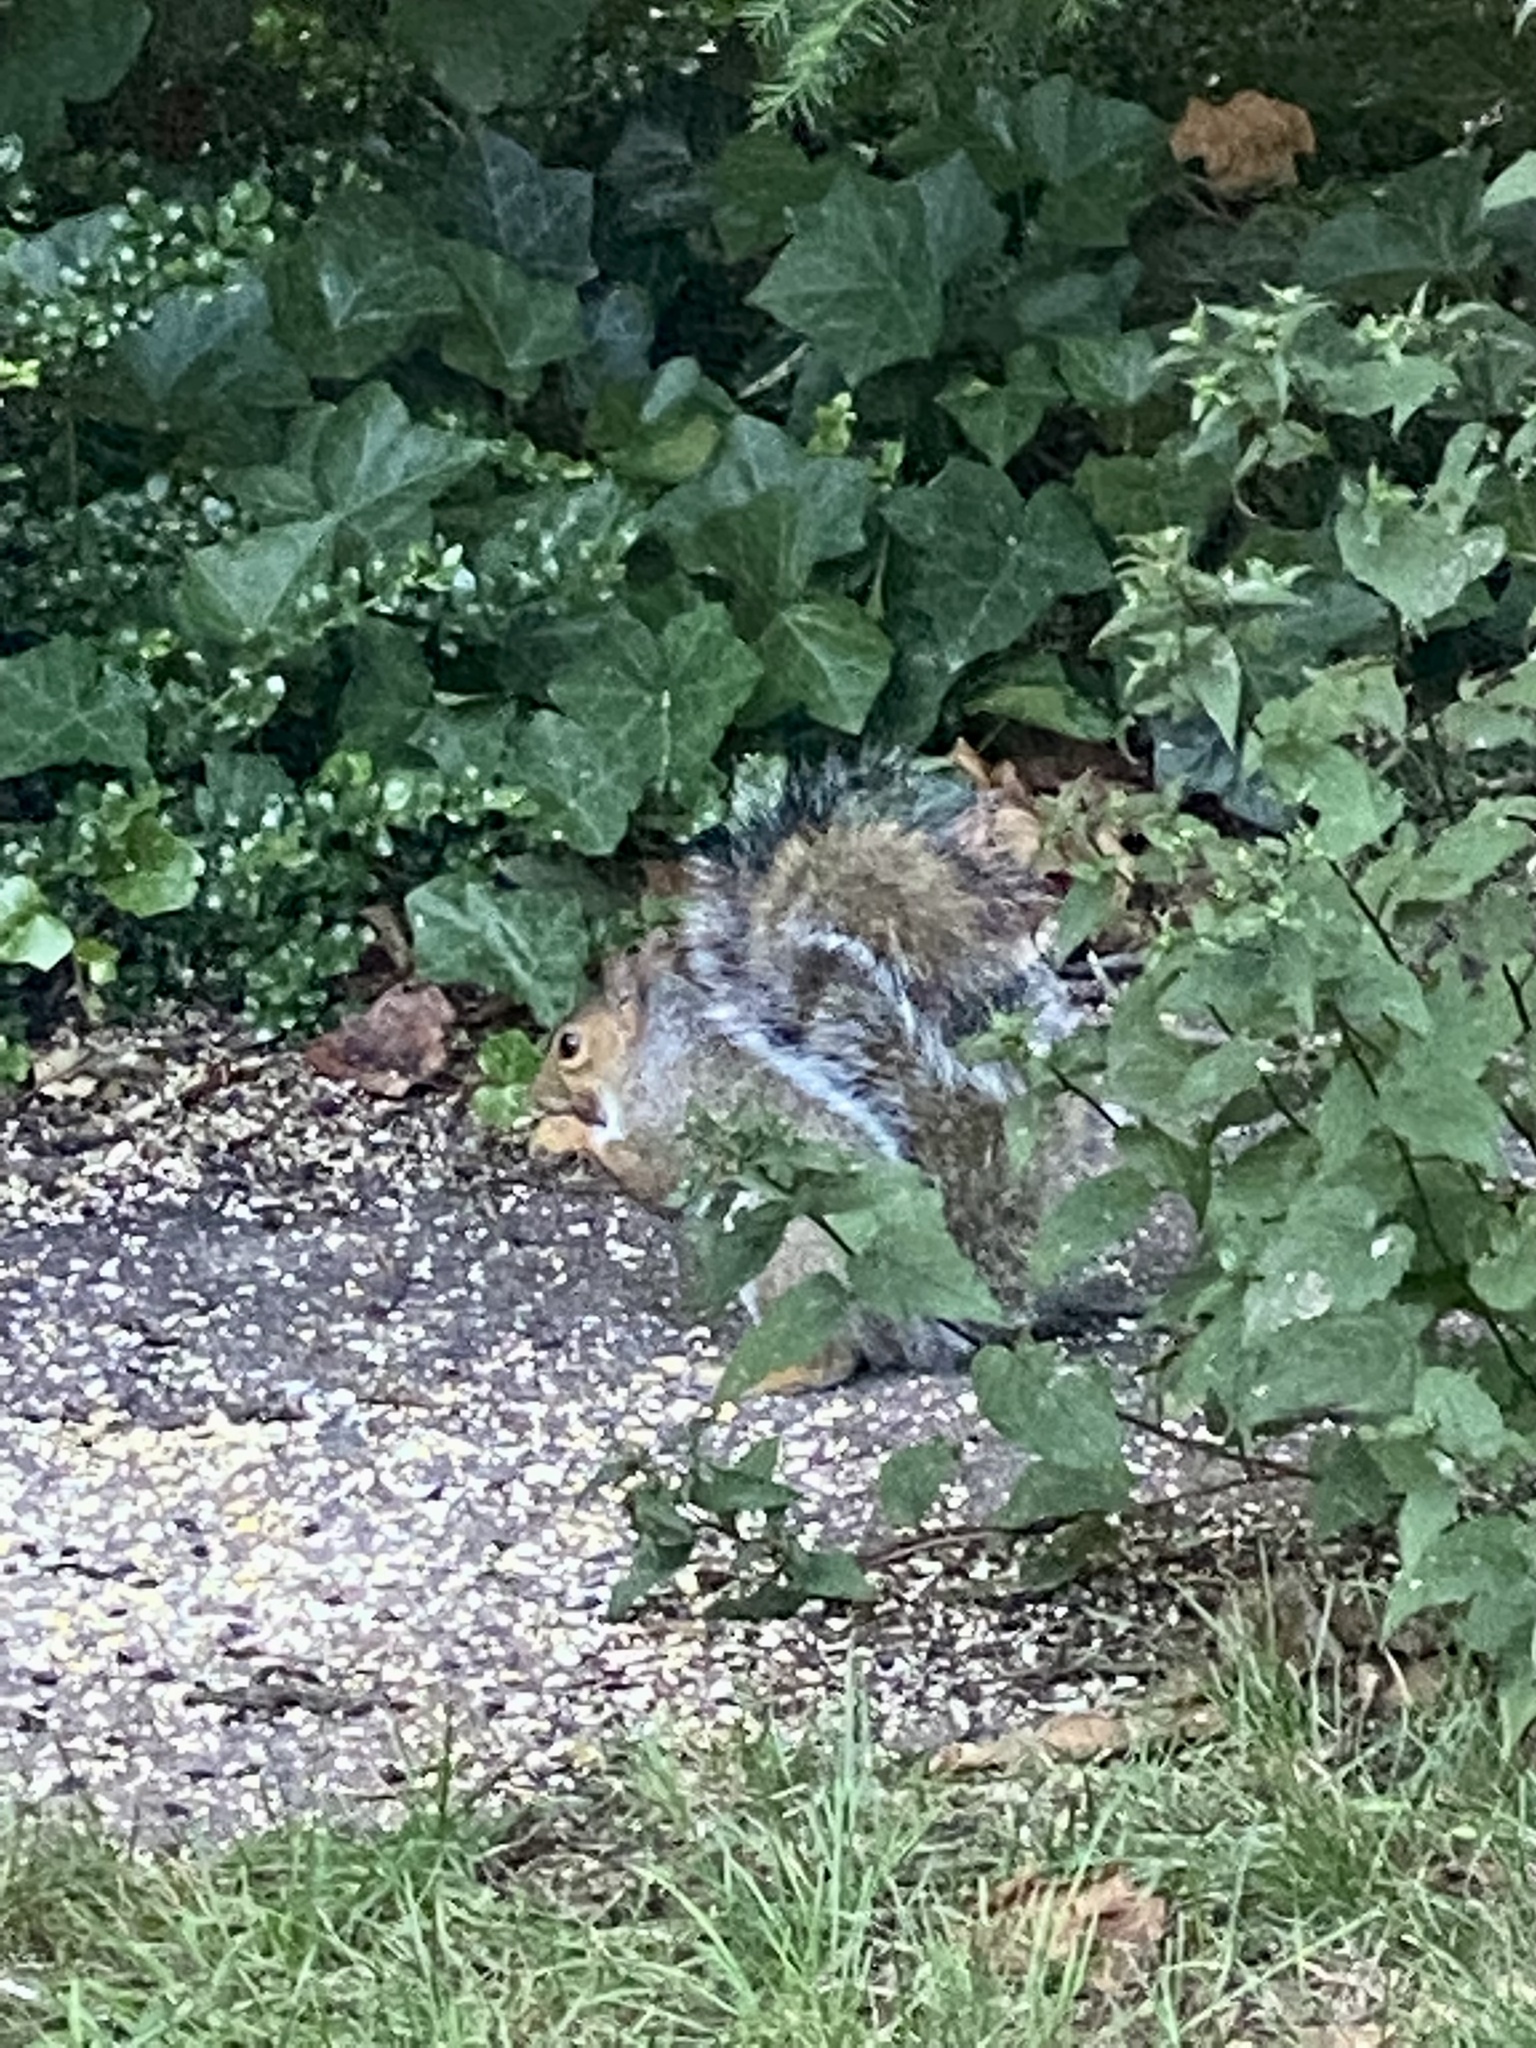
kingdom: Animalia
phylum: Chordata
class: Mammalia
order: Rodentia
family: Sciuridae
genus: Sciurus
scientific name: Sciurus carolinensis
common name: Eastern gray squirrel
